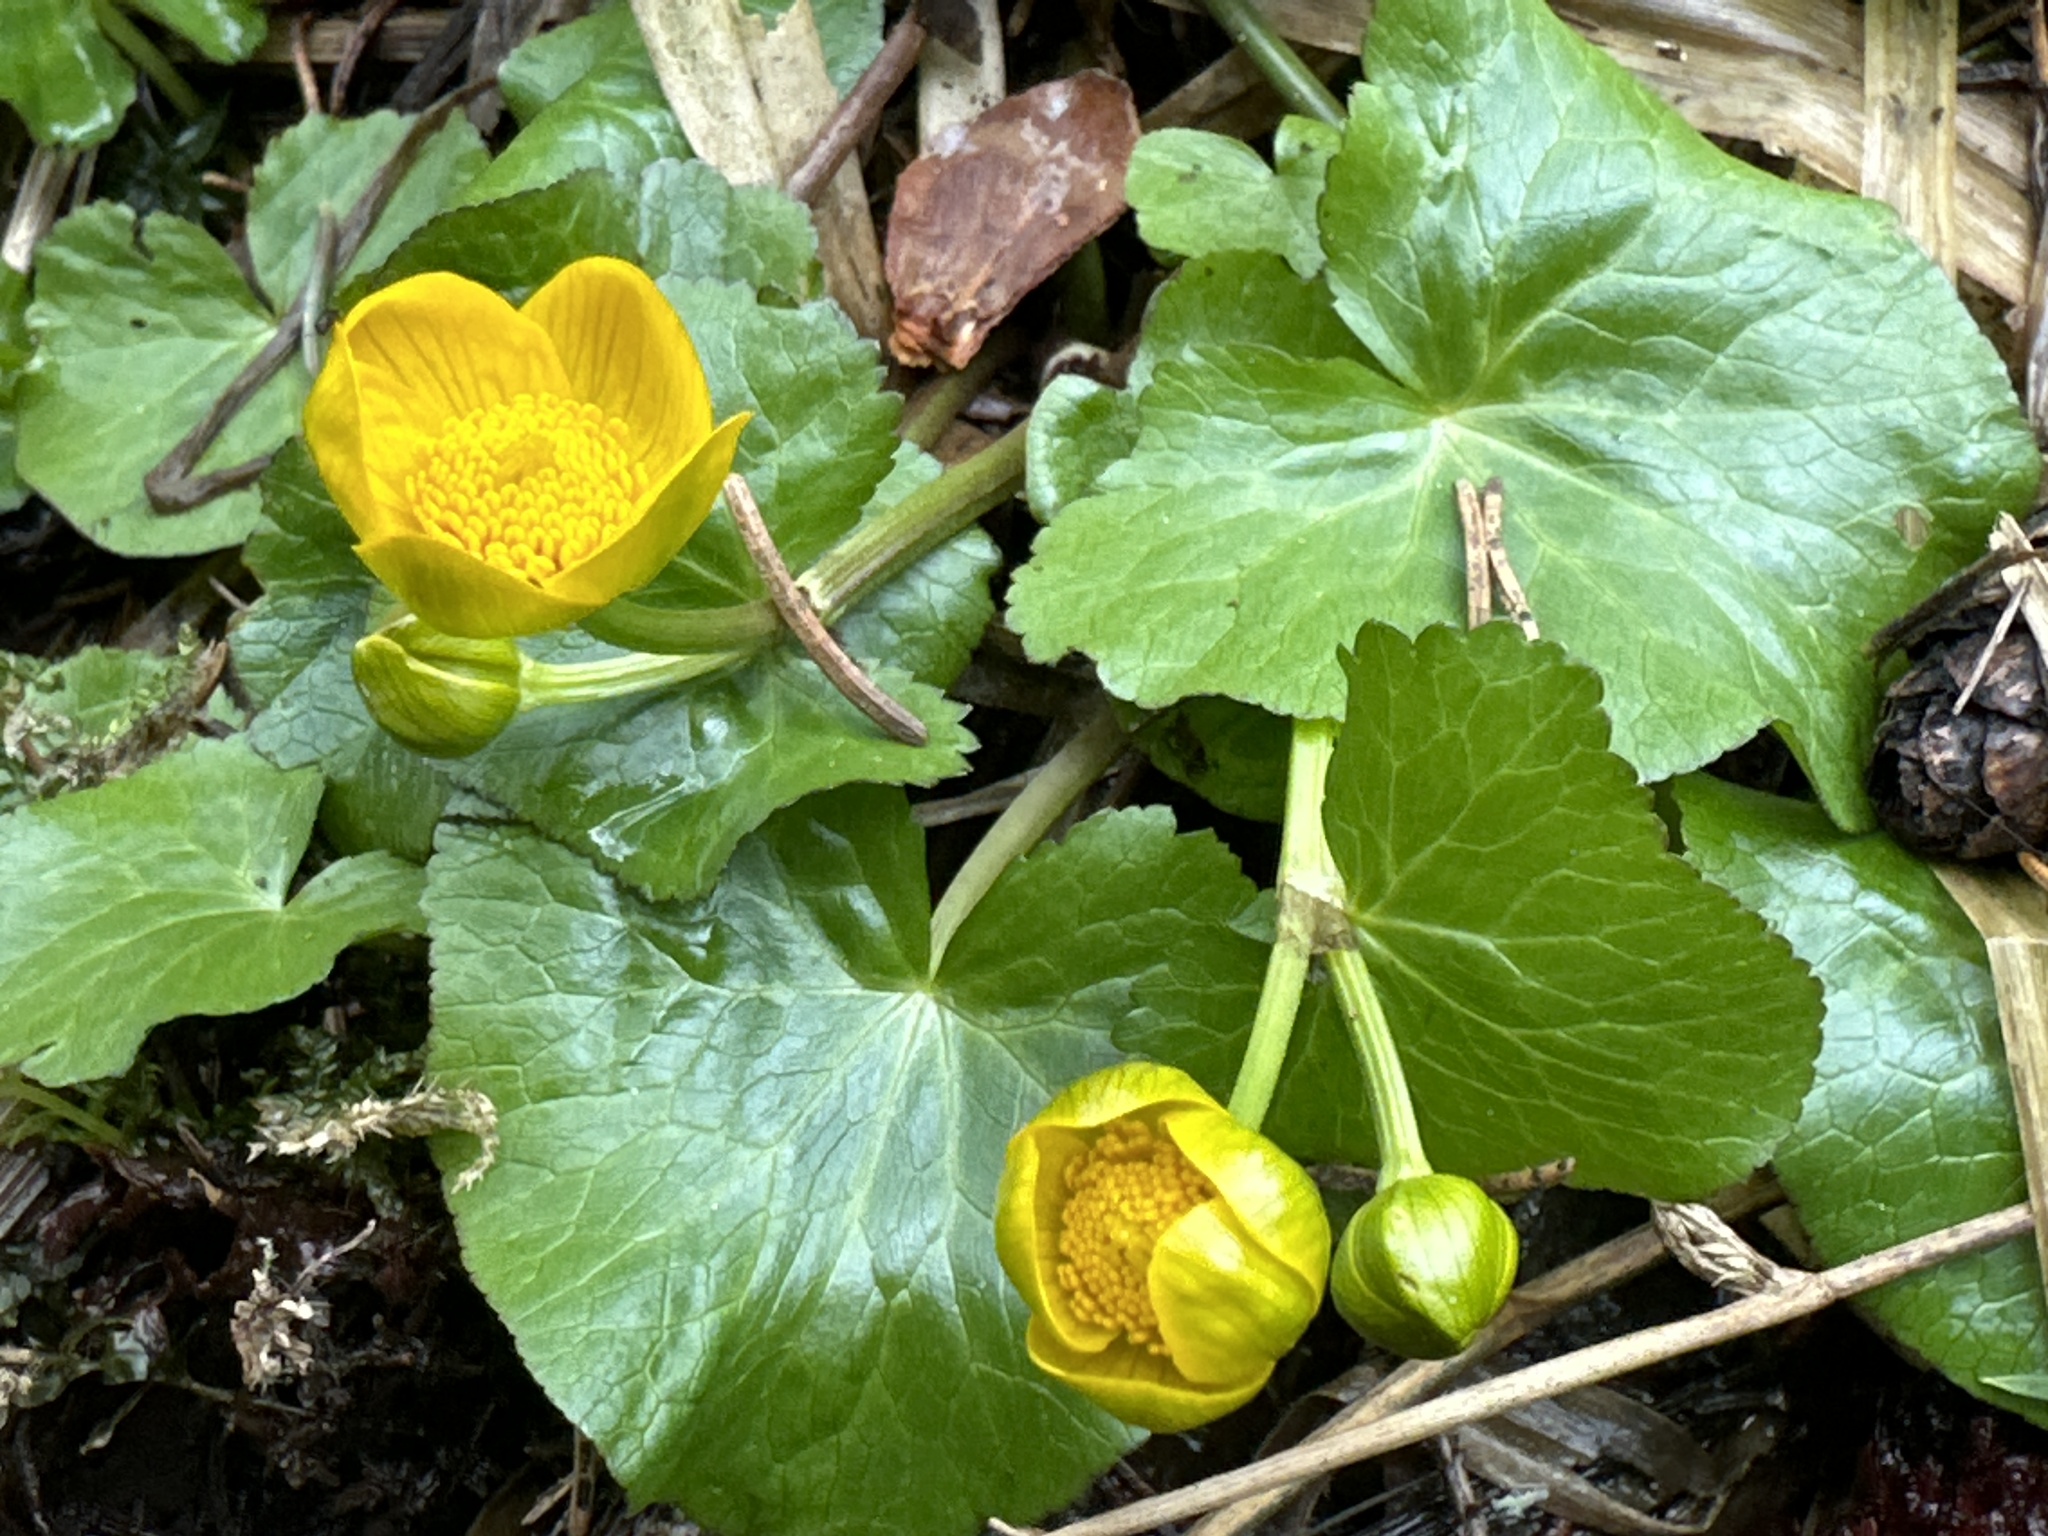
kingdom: Plantae
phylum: Tracheophyta
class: Magnoliopsida
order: Ranunculales
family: Ranunculaceae
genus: Caltha
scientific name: Caltha palustris
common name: Marsh marigold
